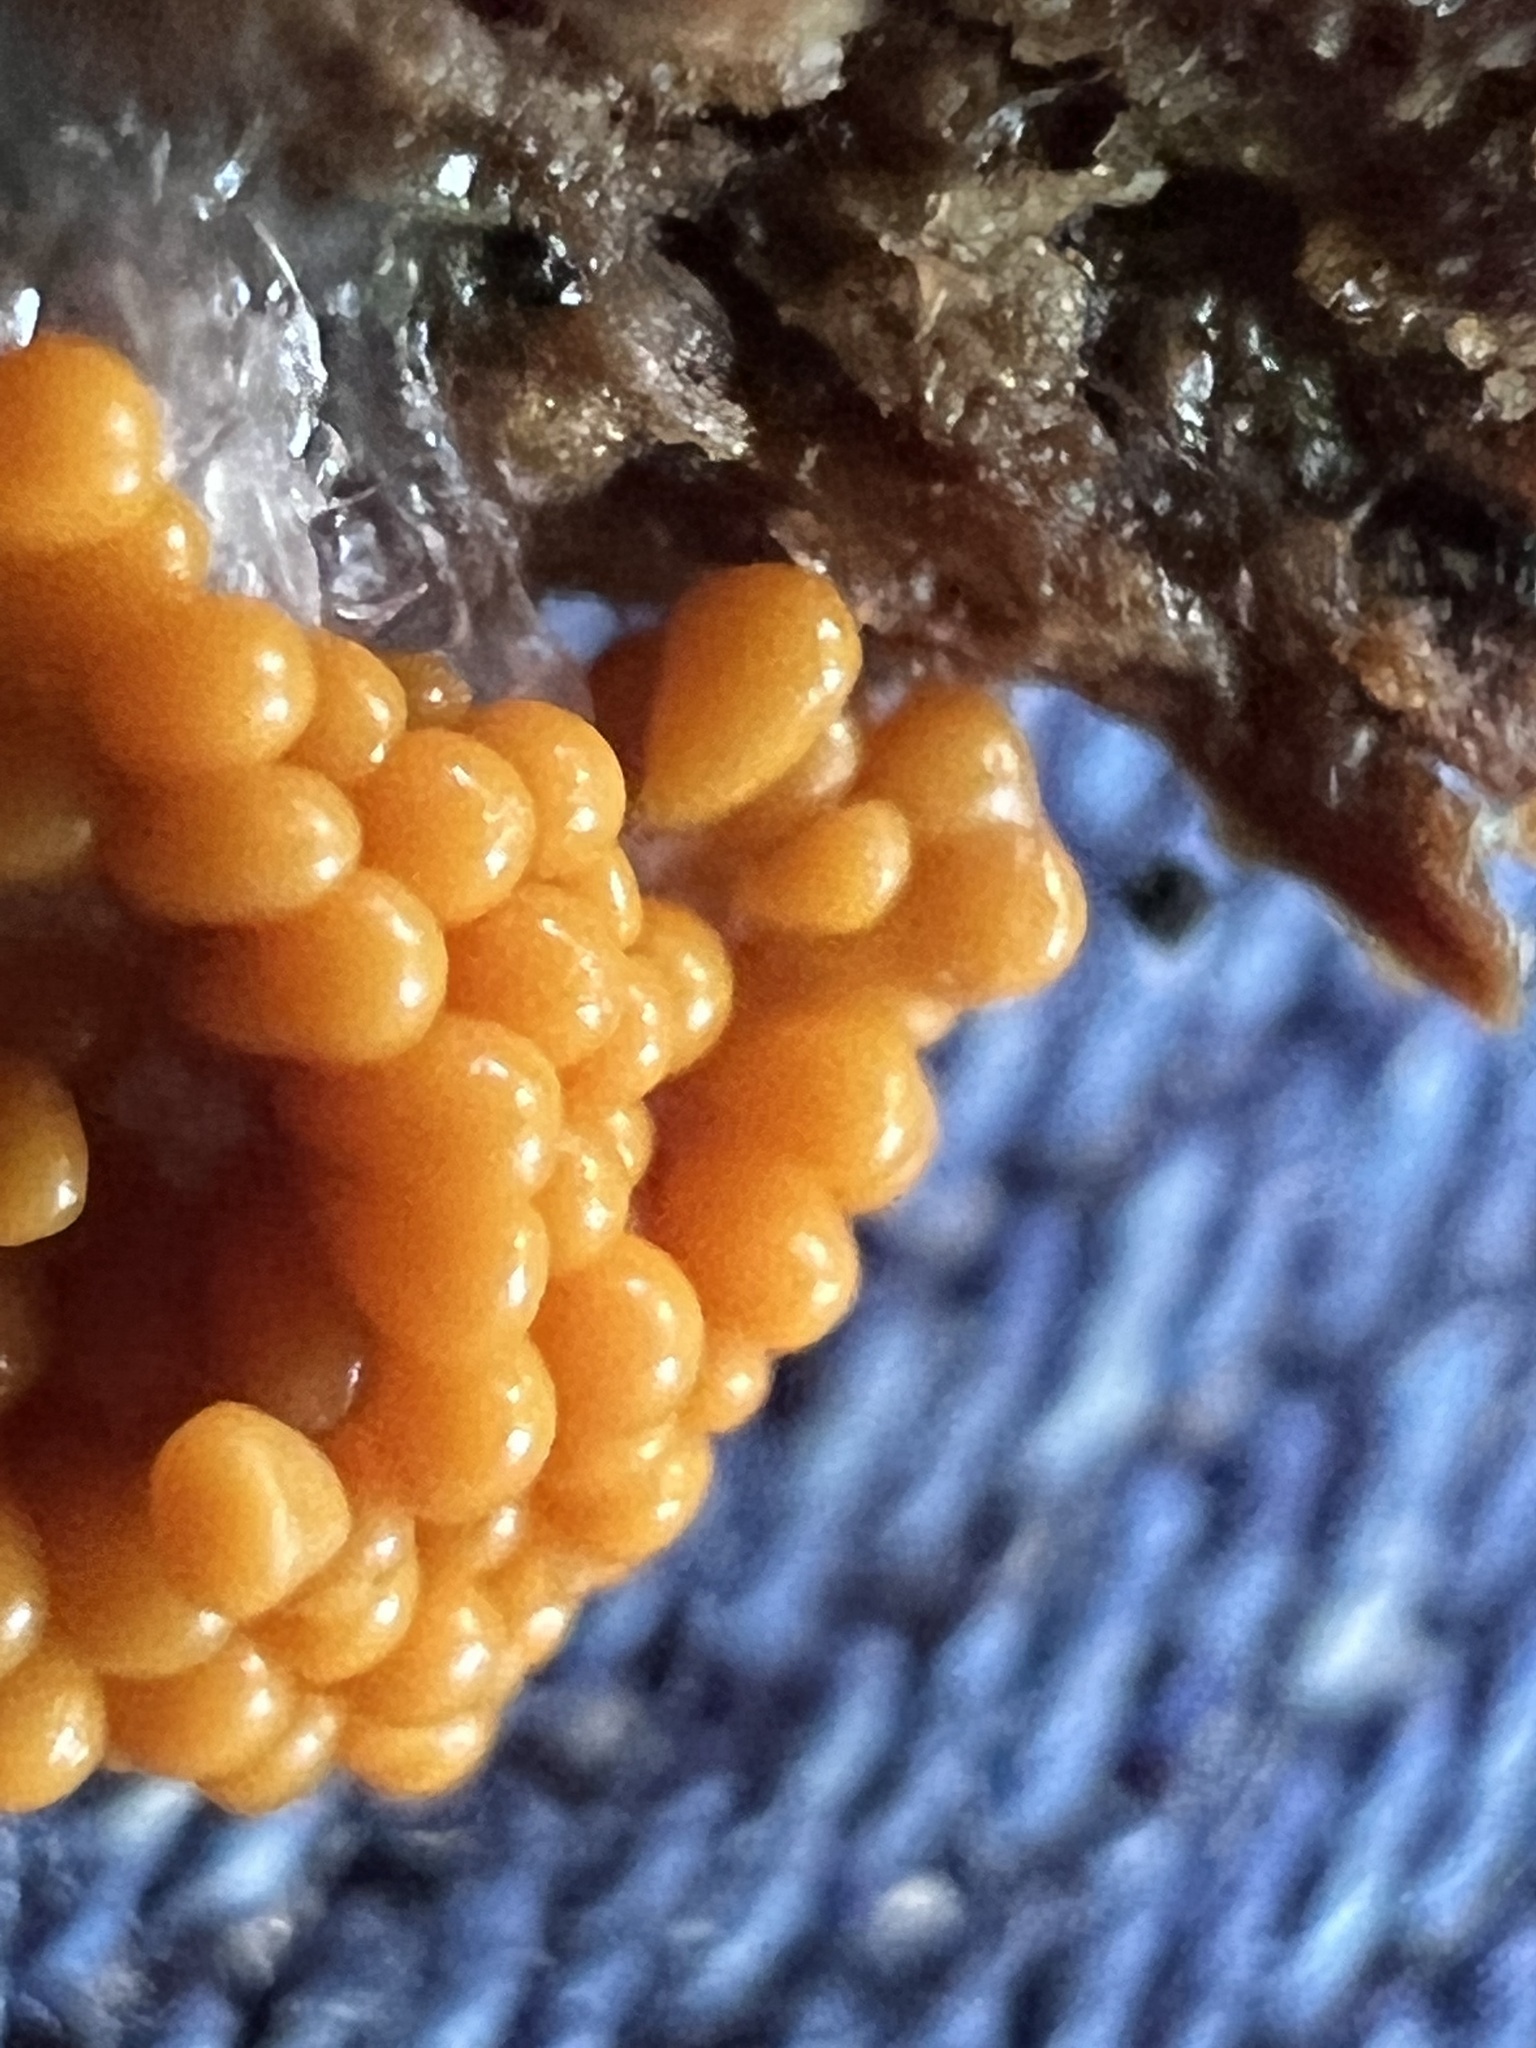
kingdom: Protozoa
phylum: Mycetozoa
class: Myxomycetes
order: Physarales
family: Physaraceae
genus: Badhamia
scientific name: Badhamia utricularis
